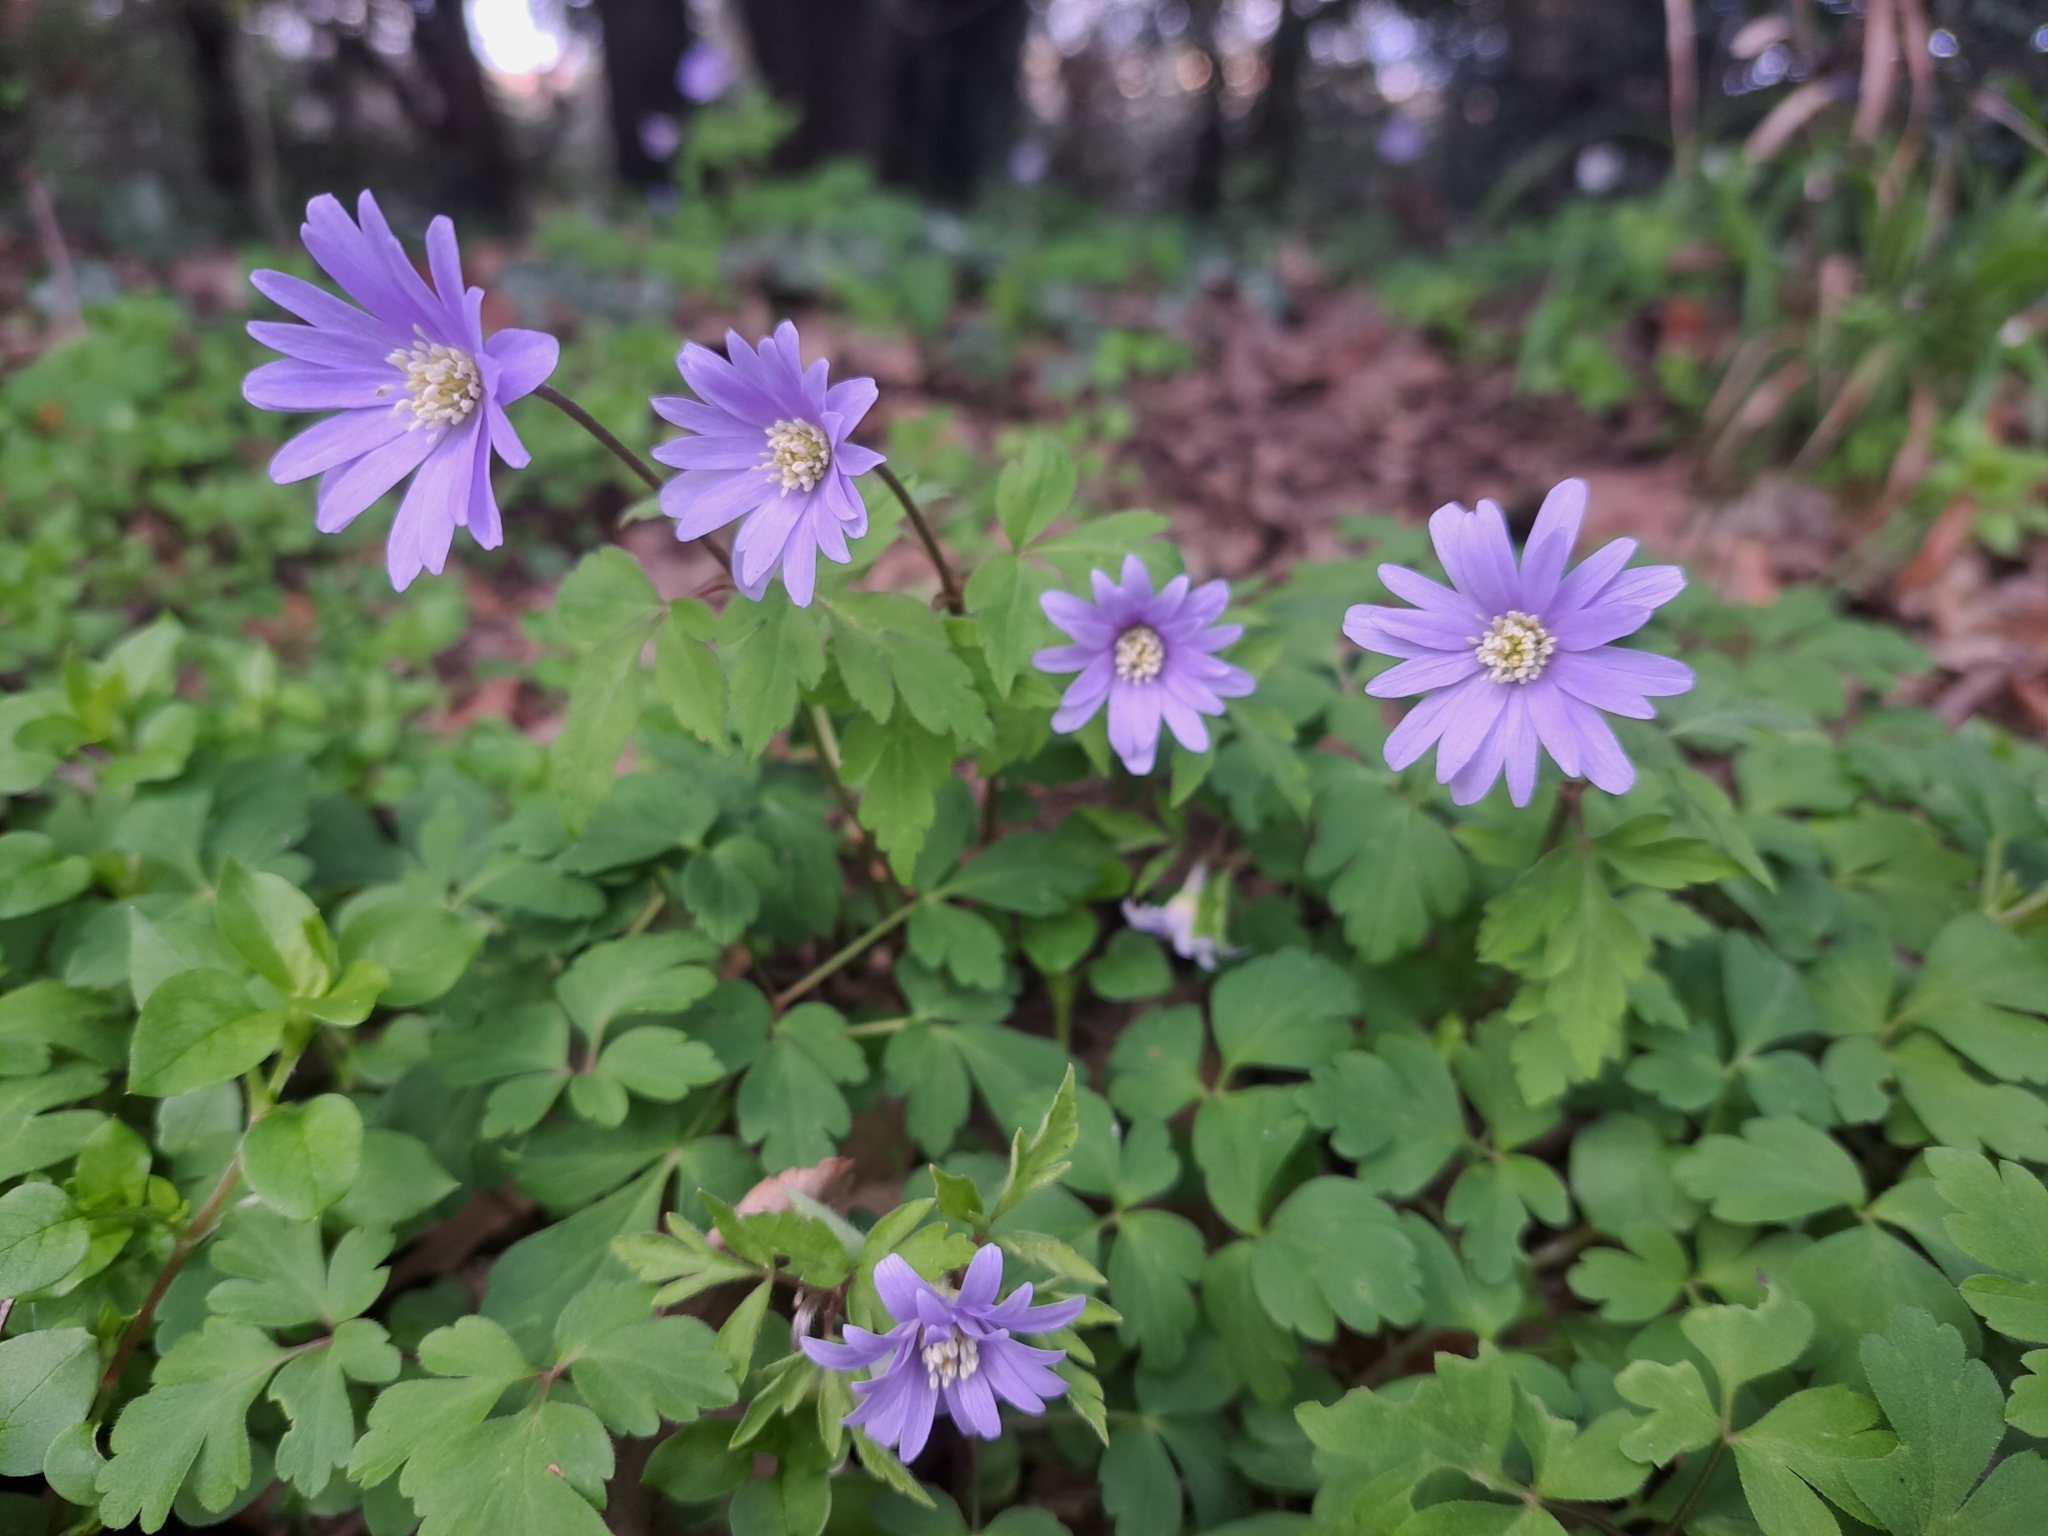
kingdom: Plantae
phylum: Tracheophyta
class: Magnoliopsida
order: Ranunculales
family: Ranunculaceae
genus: Anemone
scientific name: Anemone apennina
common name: Blue anemone
